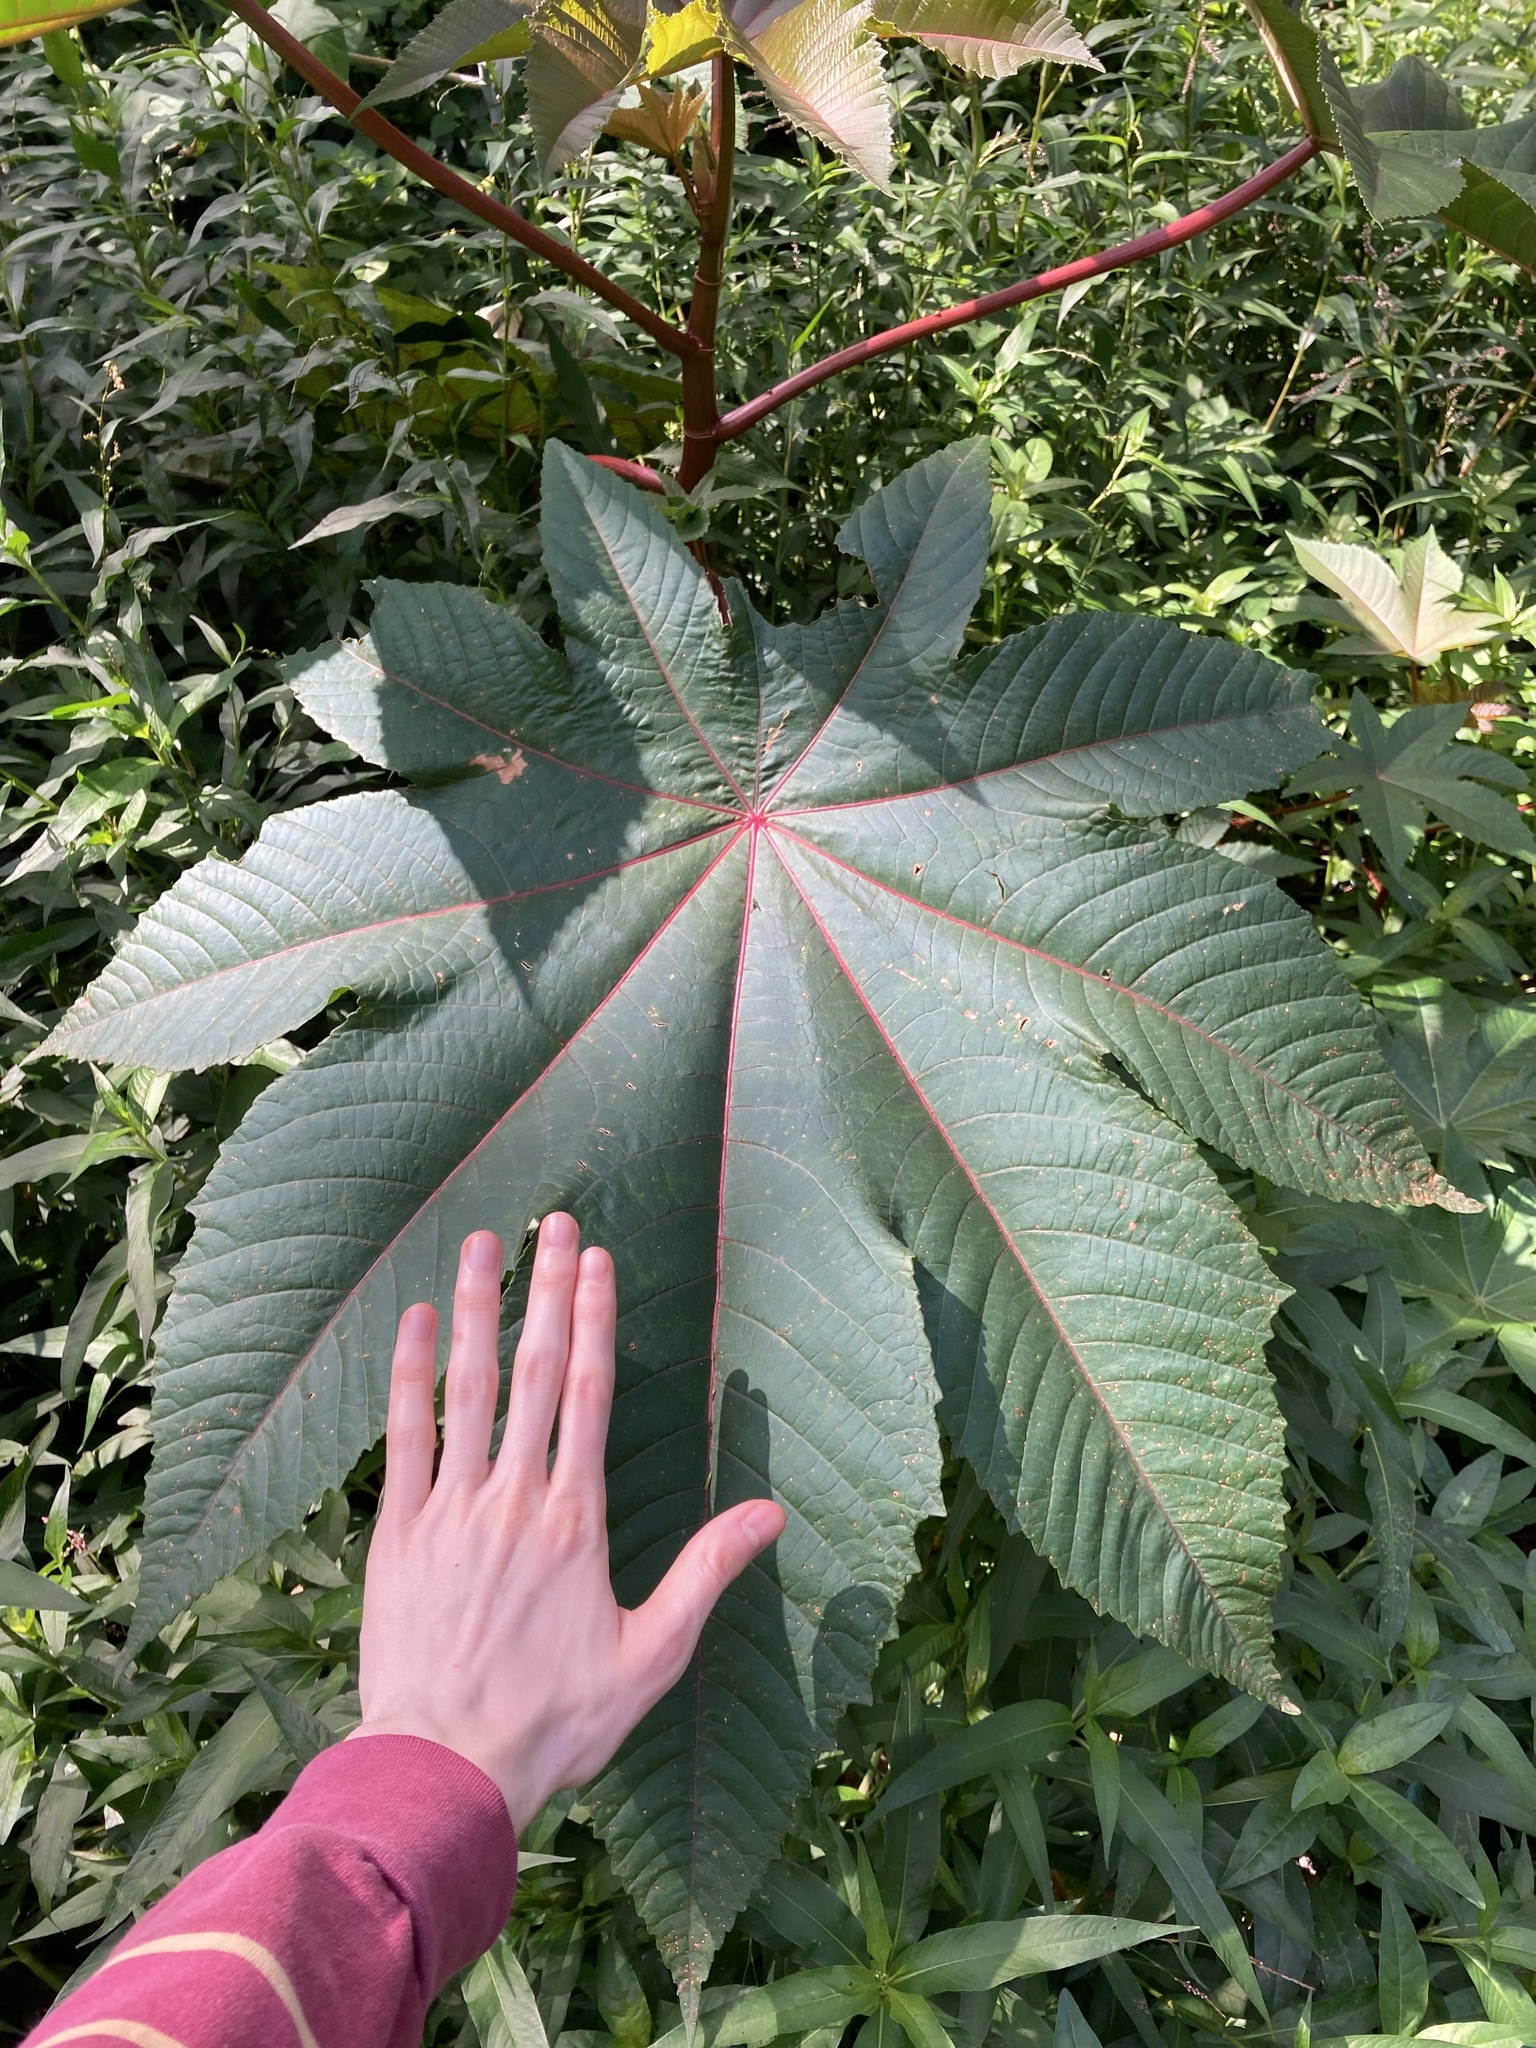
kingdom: Plantae
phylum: Tracheophyta
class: Magnoliopsida
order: Malpighiales
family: Euphorbiaceae
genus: Ricinus
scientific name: Ricinus communis
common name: Castor-oil-plant
